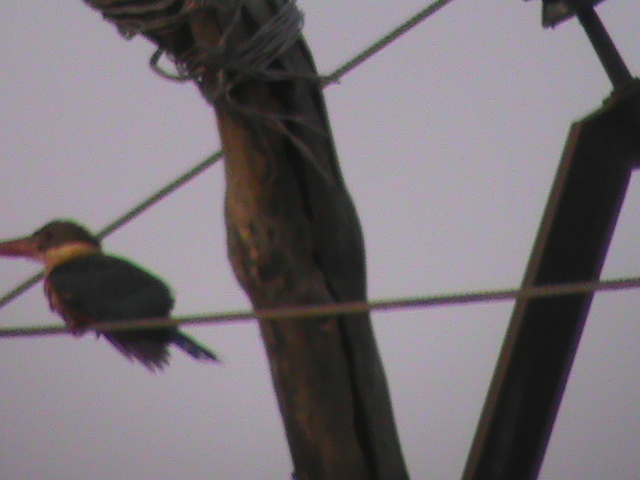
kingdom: Animalia
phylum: Chordata
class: Aves
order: Coraciiformes
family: Alcedinidae
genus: Pelargopsis
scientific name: Pelargopsis capensis
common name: Stork-billed kingfisher
